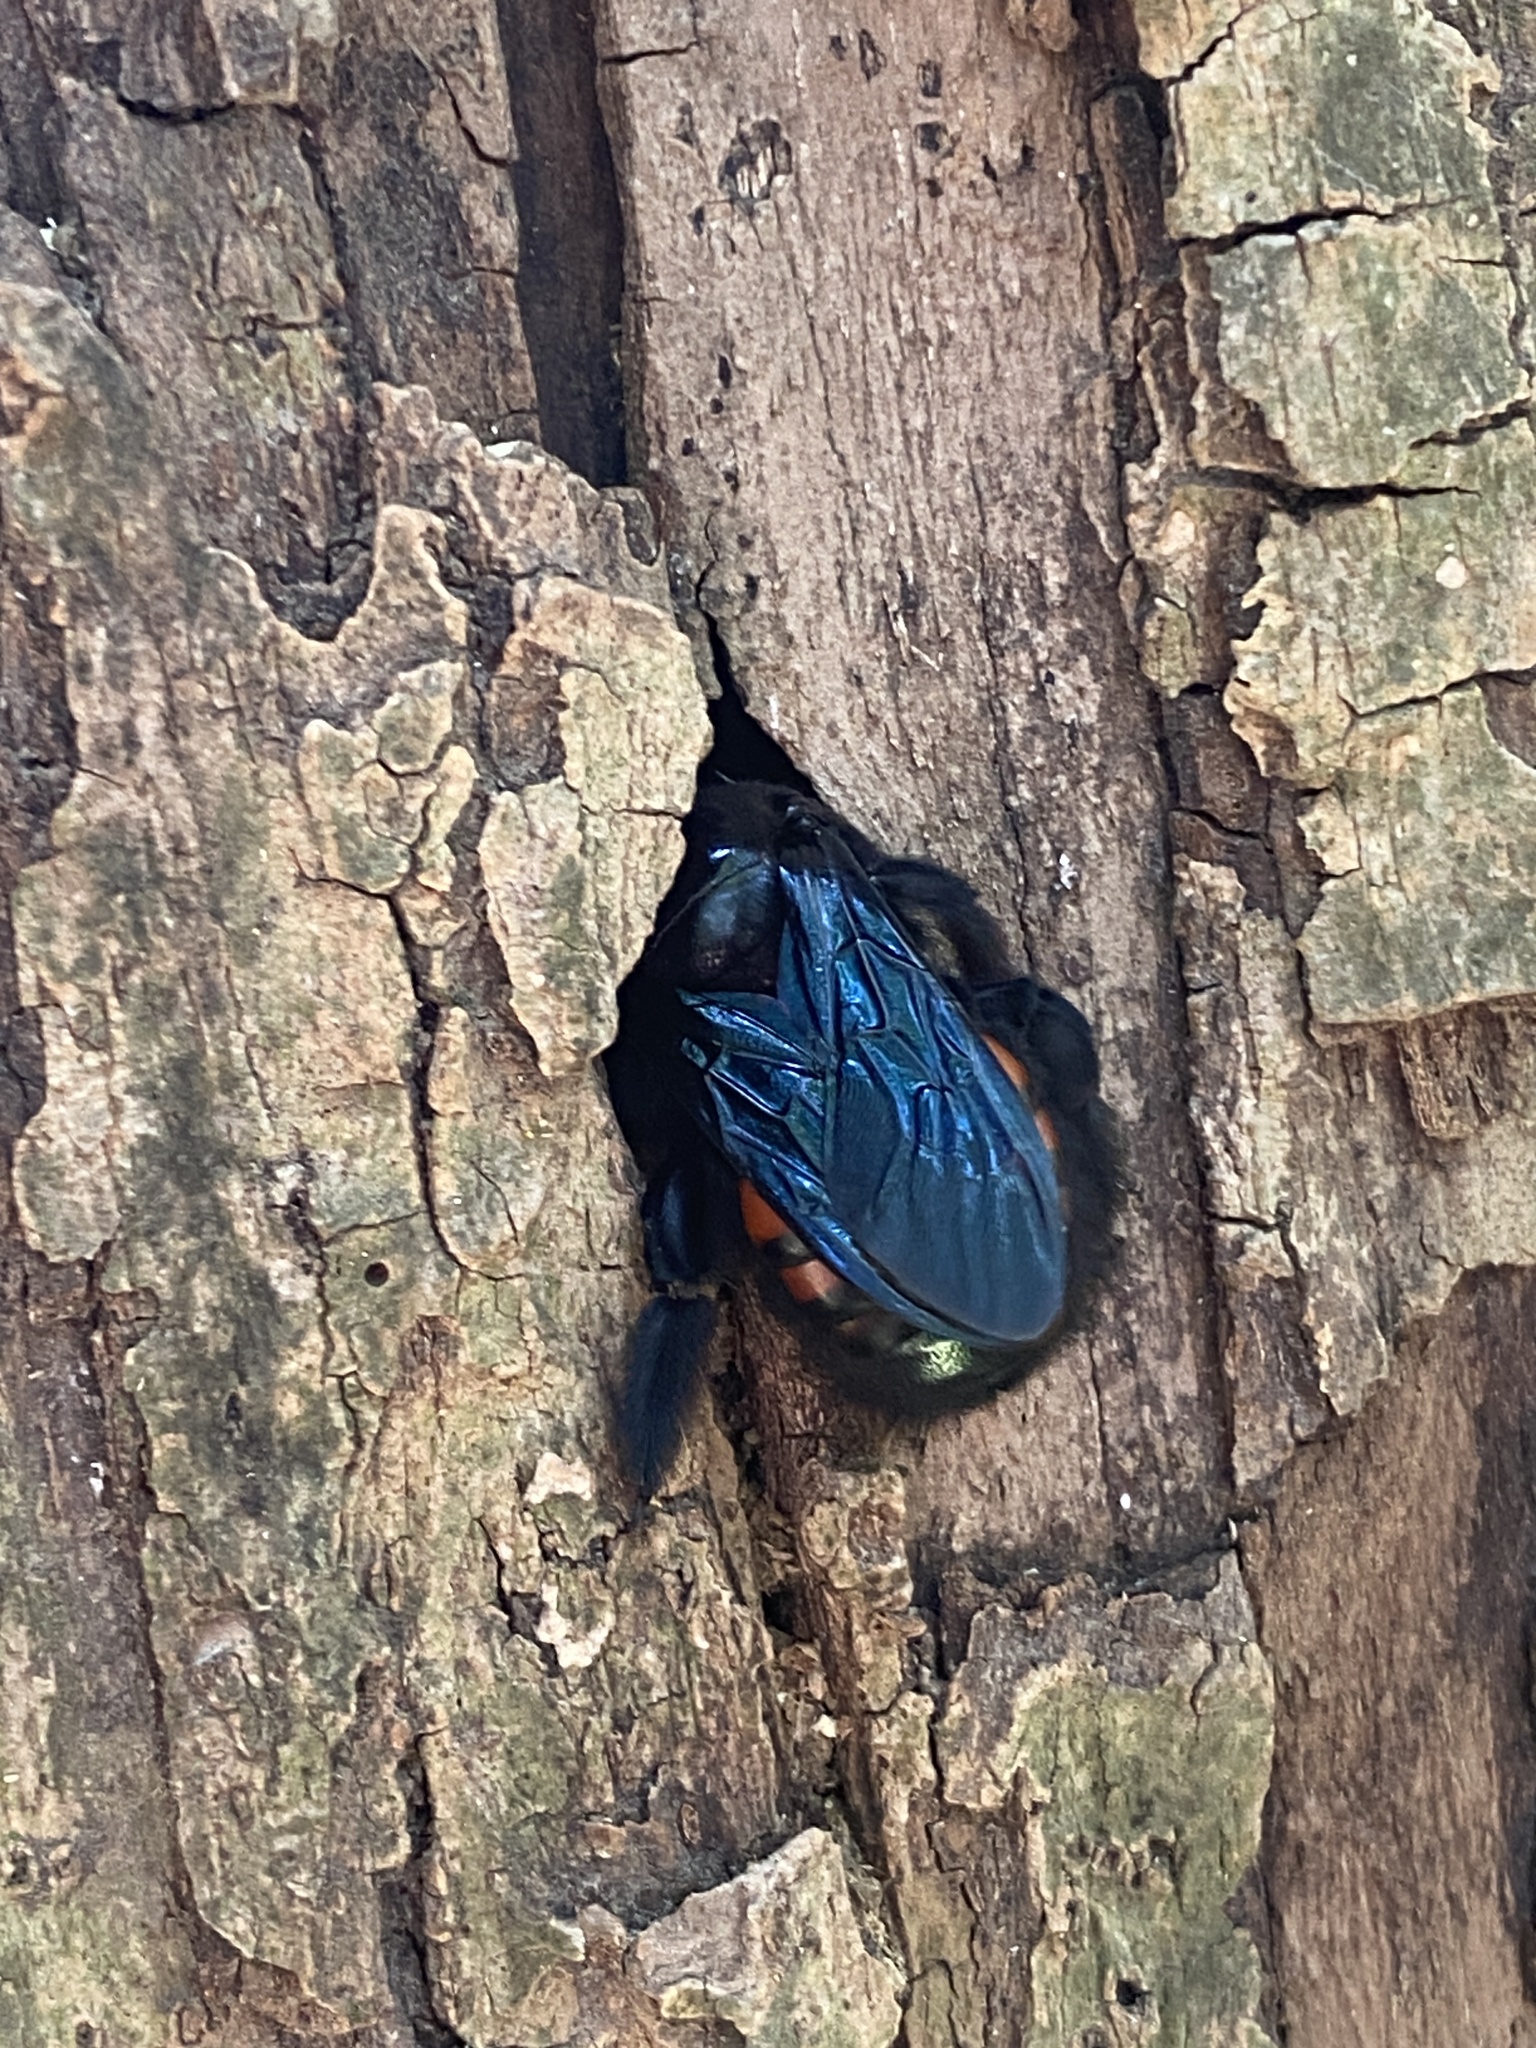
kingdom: Animalia
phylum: Arthropoda
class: Insecta
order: Hymenoptera
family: Apidae
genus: Xylocopa
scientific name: Xylocopa frontalis
